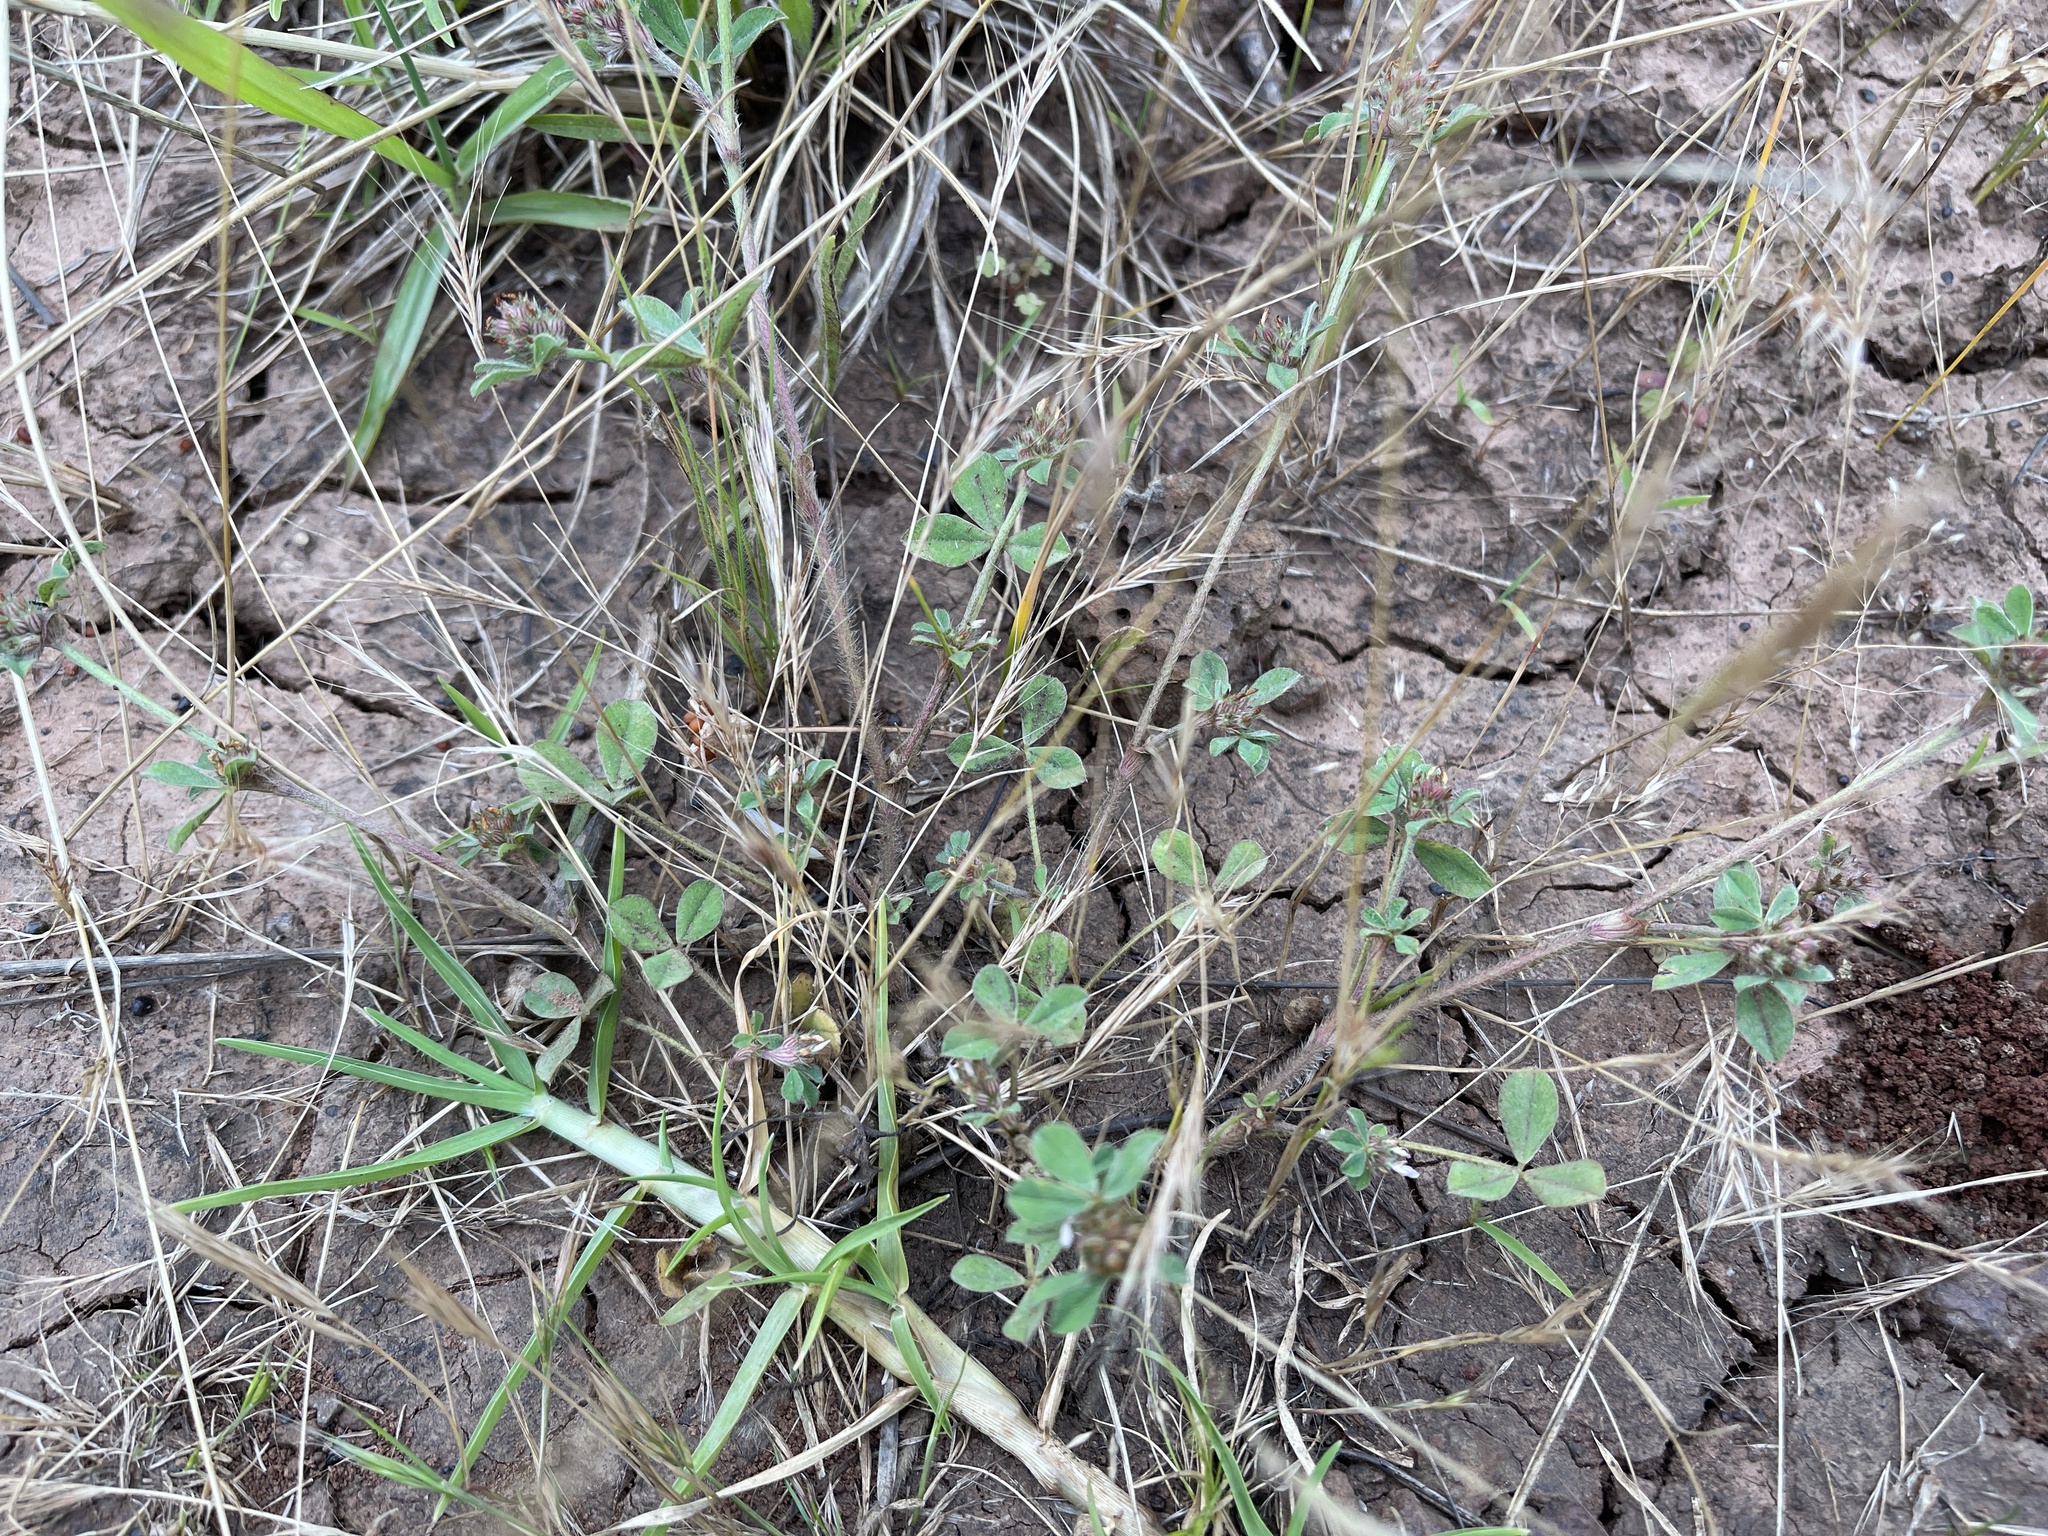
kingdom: Plantae
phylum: Tracheophyta
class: Magnoliopsida
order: Fabales
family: Fabaceae
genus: Trifolium
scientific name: Trifolium striatum
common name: Knotted clover
